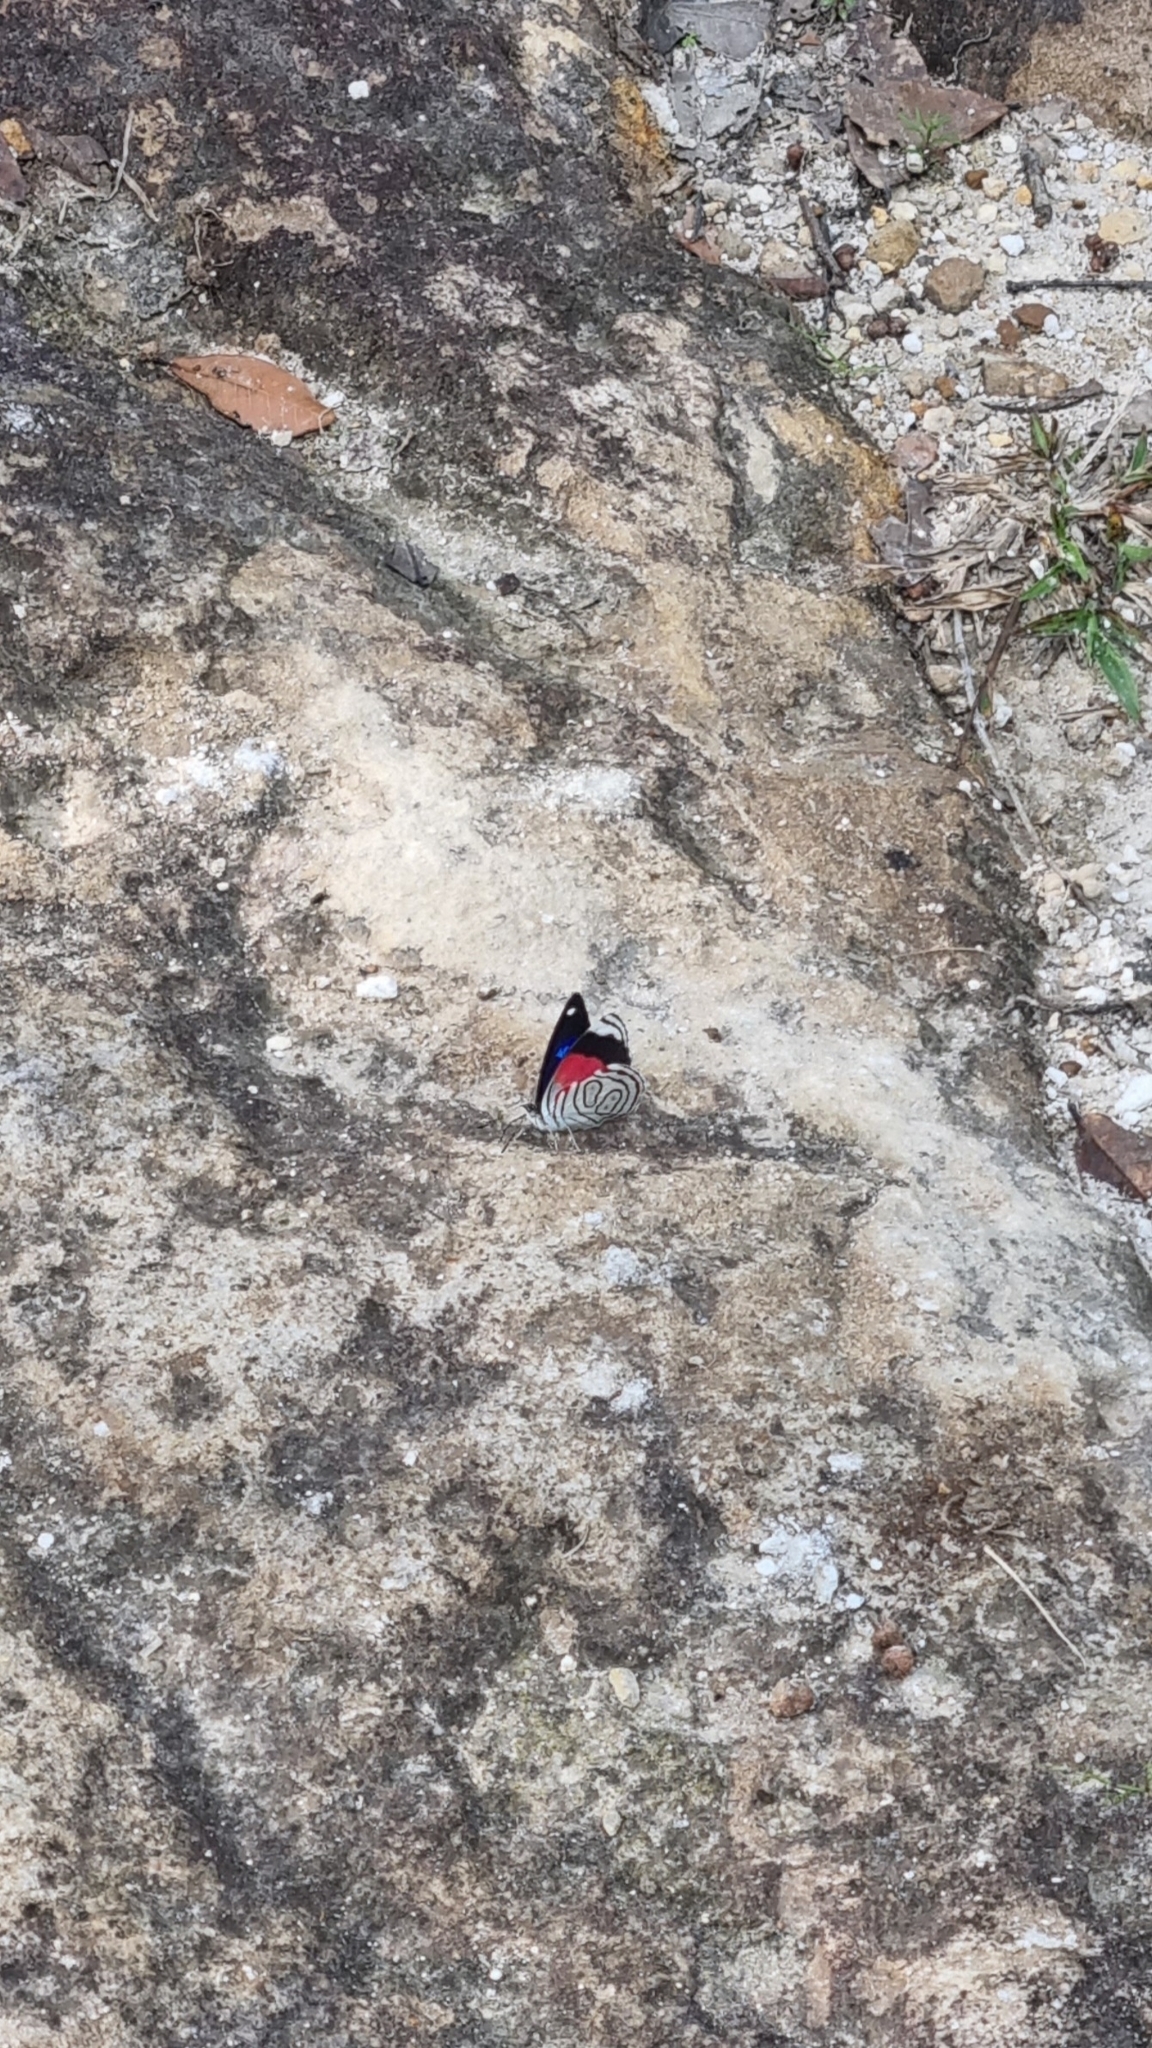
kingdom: Animalia
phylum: Arthropoda
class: Insecta
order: Lepidoptera
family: Nymphalidae
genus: Diaethria
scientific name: Diaethria astala
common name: Navy eighty-eight
